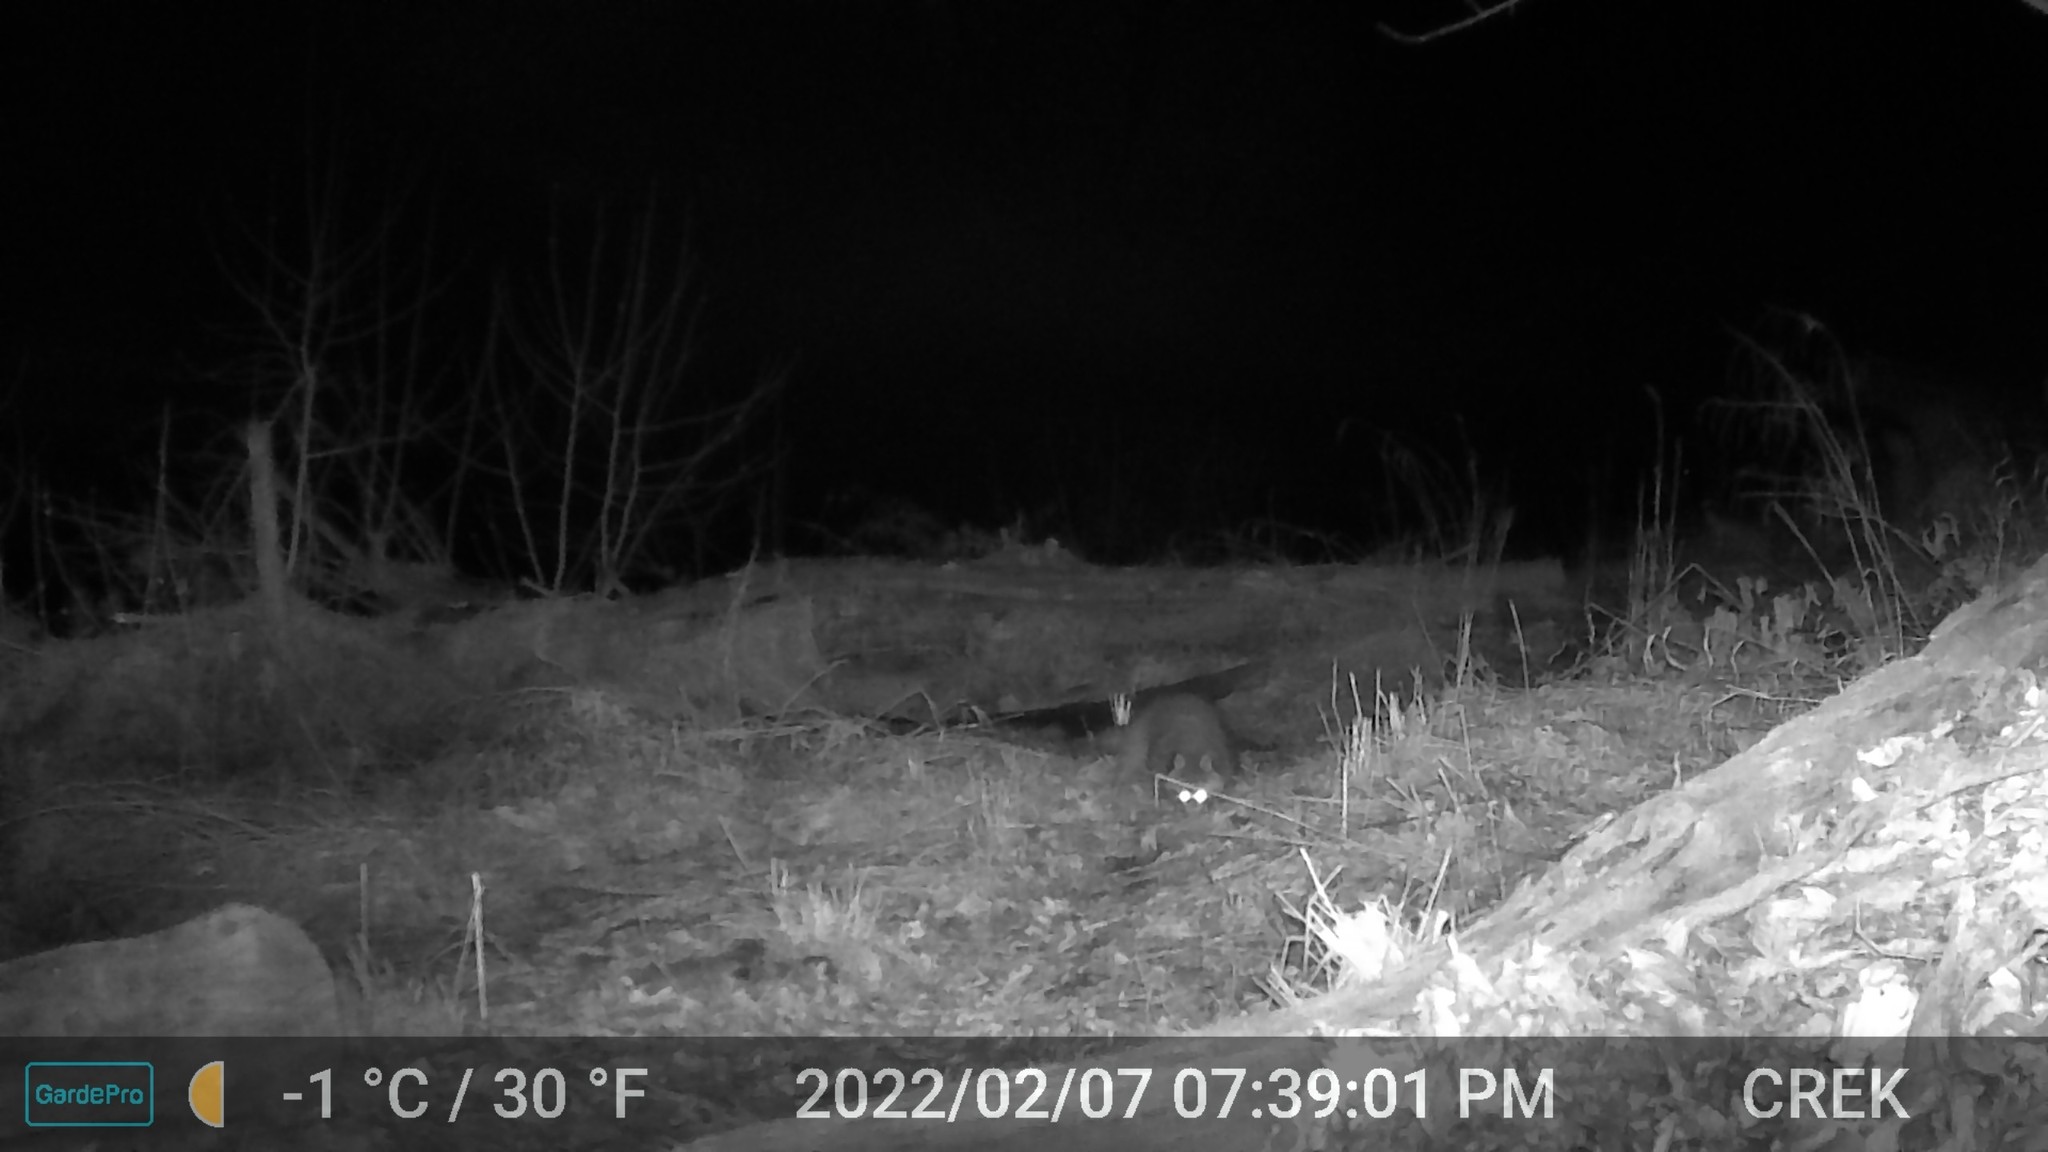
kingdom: Animalia
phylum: Chordata
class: Mammalia
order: Carnivora
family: Procyonidae
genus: Procyon
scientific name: Procyon lotor
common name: Raccoon
